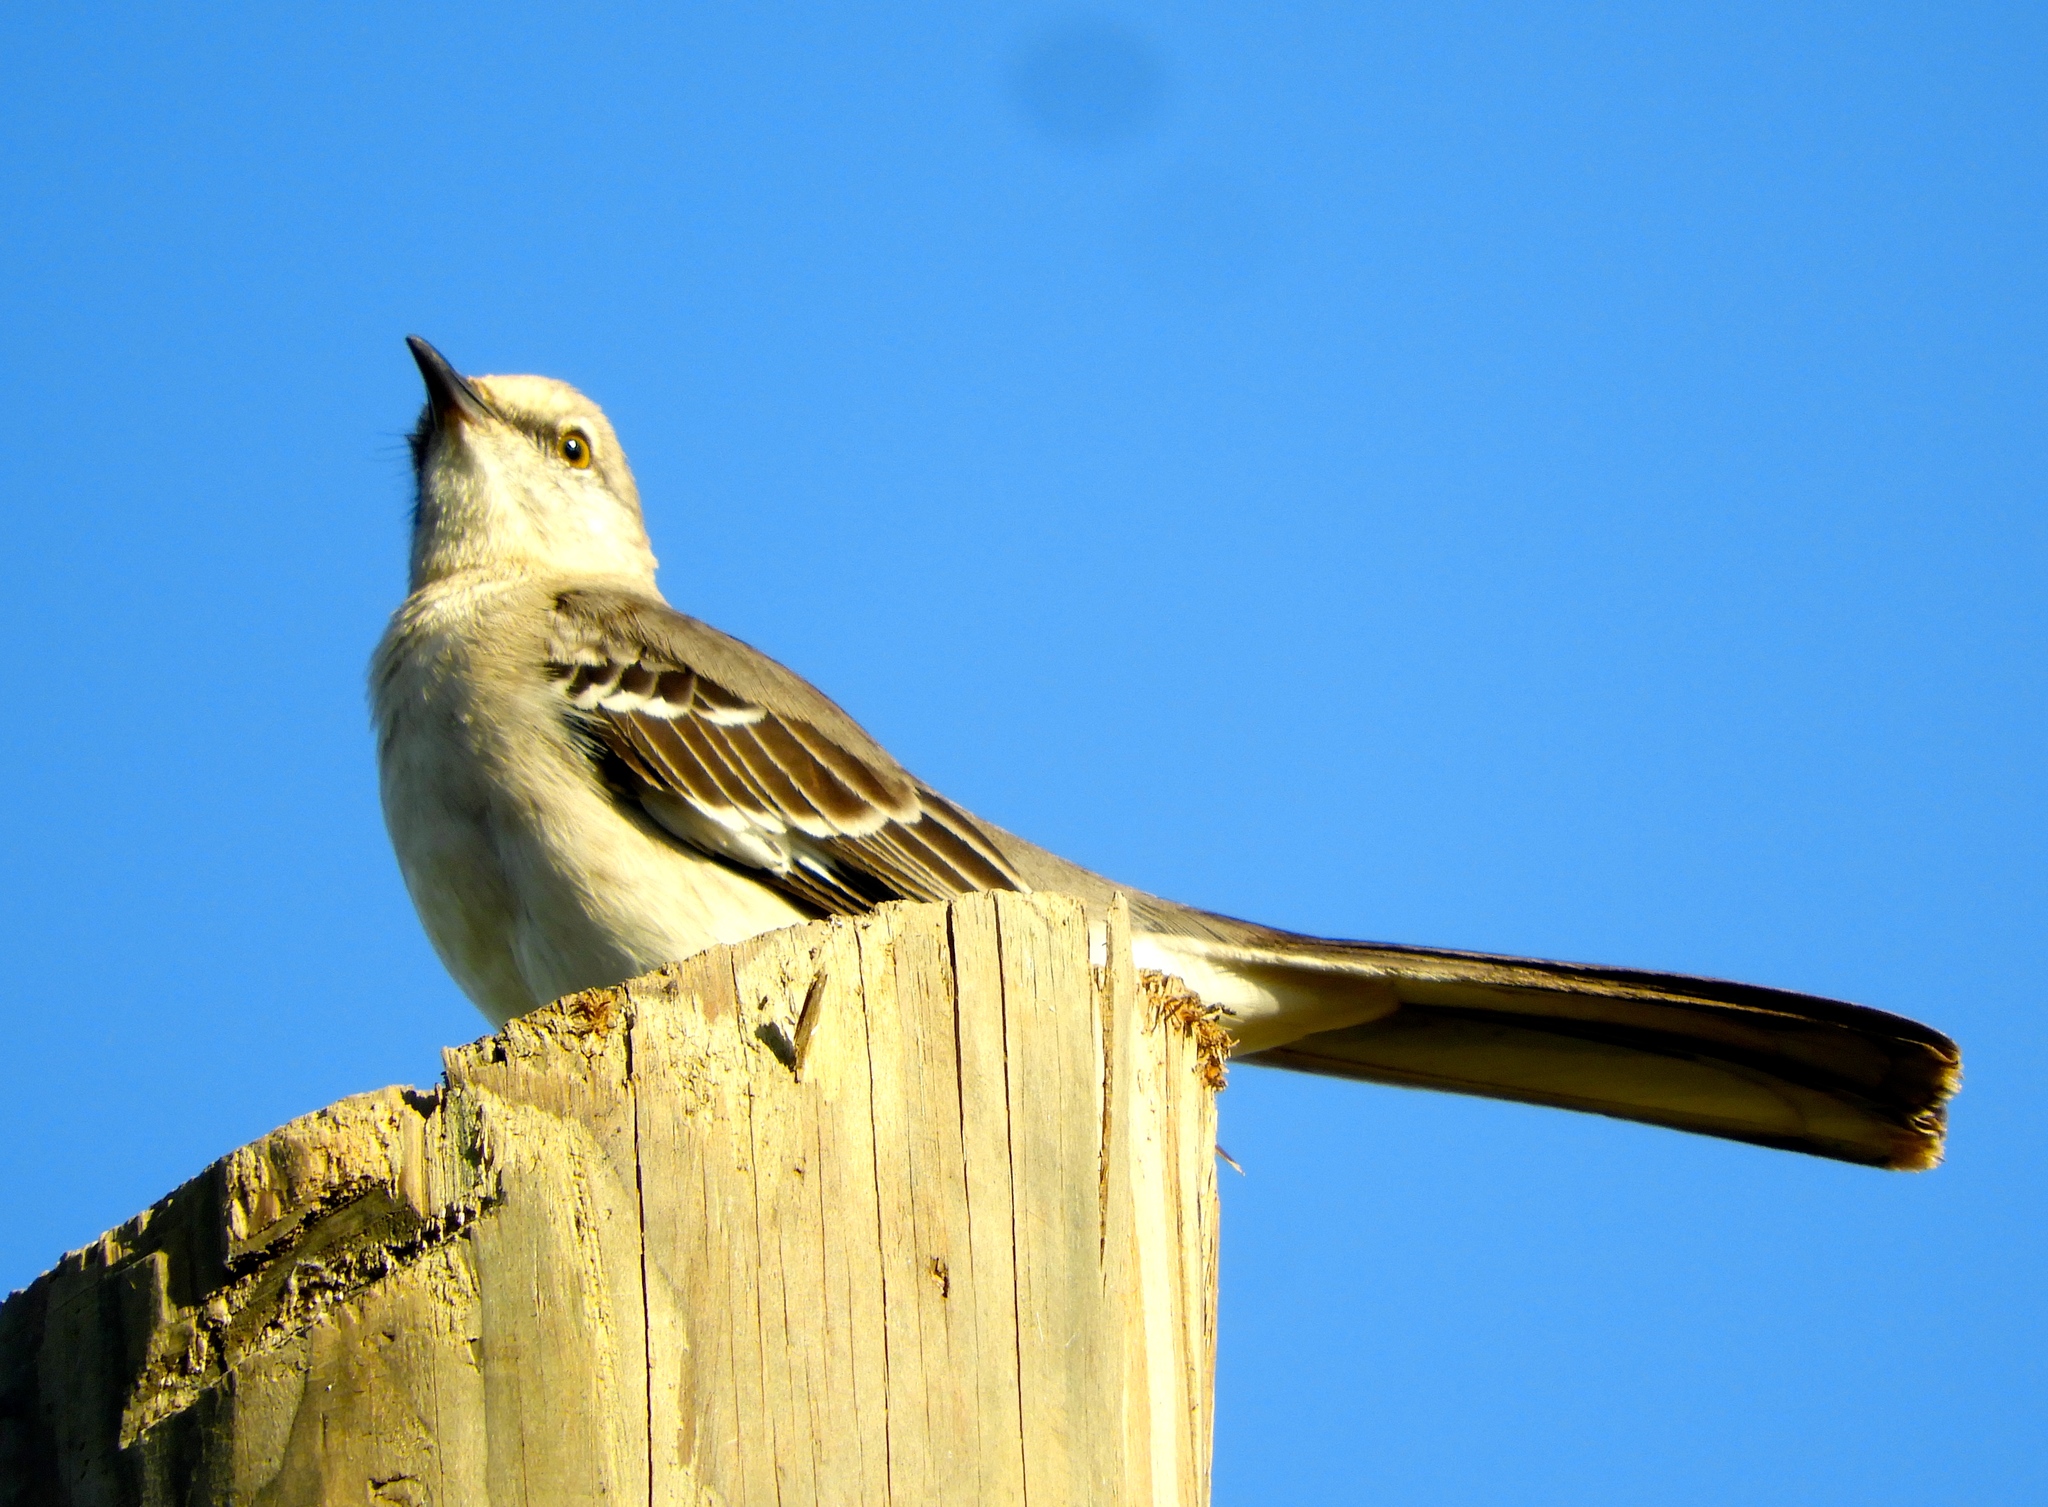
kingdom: Animalia
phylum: Chordata
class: Aves
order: Passeriformes
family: Mimidae
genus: Mimus
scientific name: Mimus polyglottos
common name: Northern mockingbird
